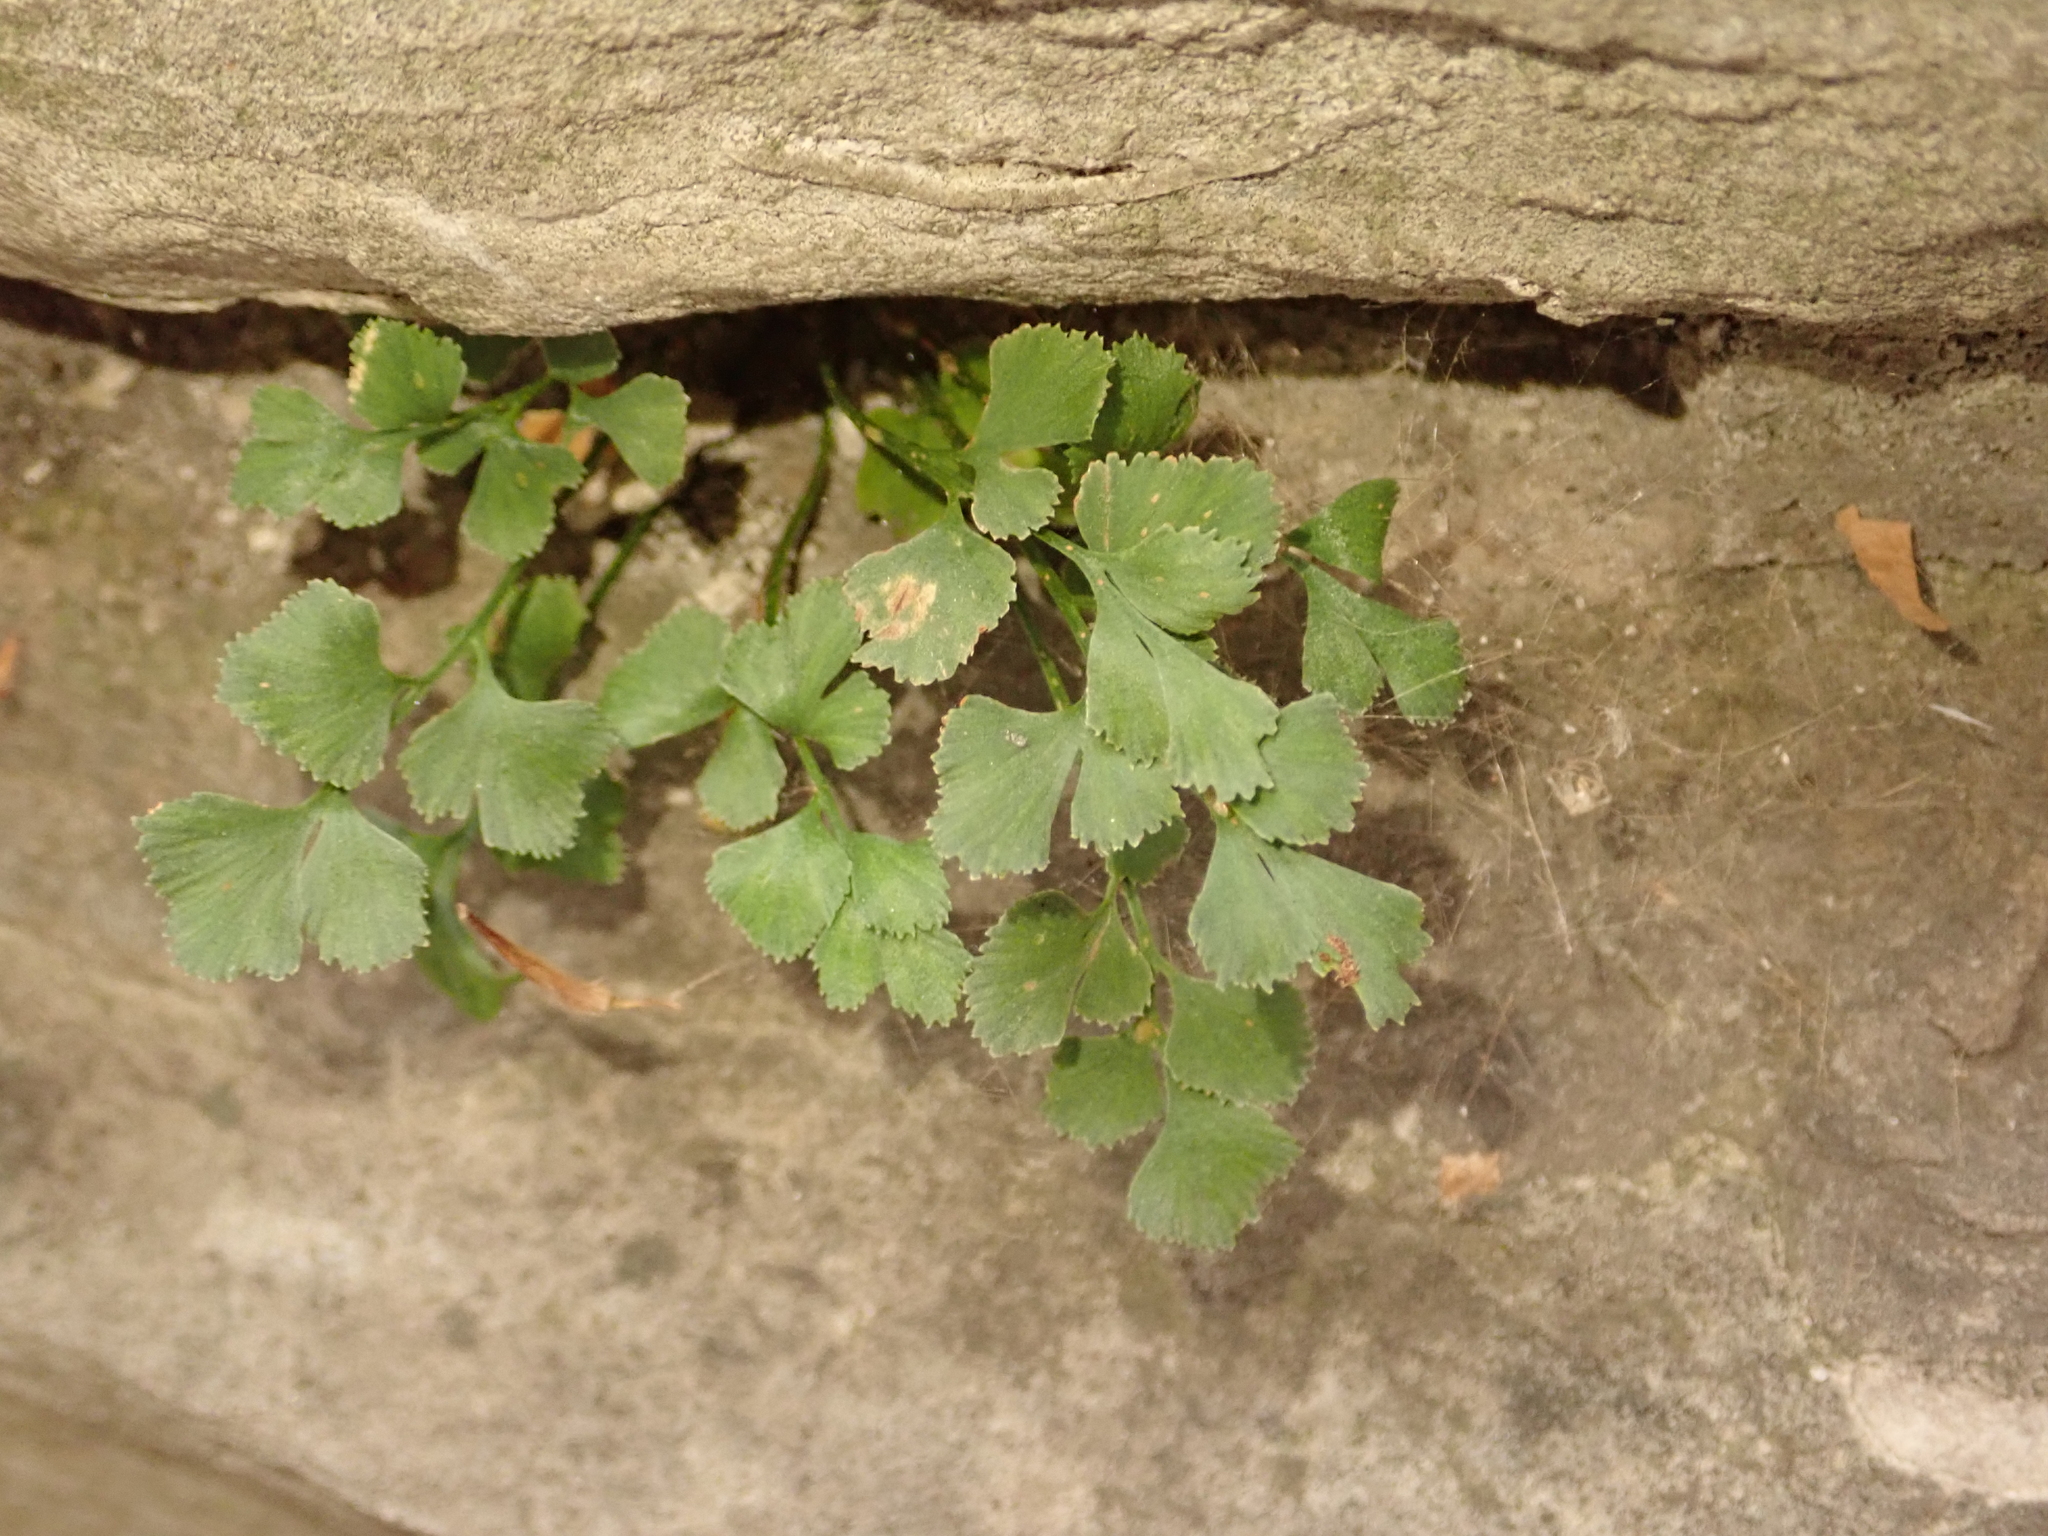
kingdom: Plantae
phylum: Tracheophyta
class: Polypodiopsida
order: Polypodiales
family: Aspleniaceae
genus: Asplenium
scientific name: Asplenium ruta-muraria
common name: Wall-rue
